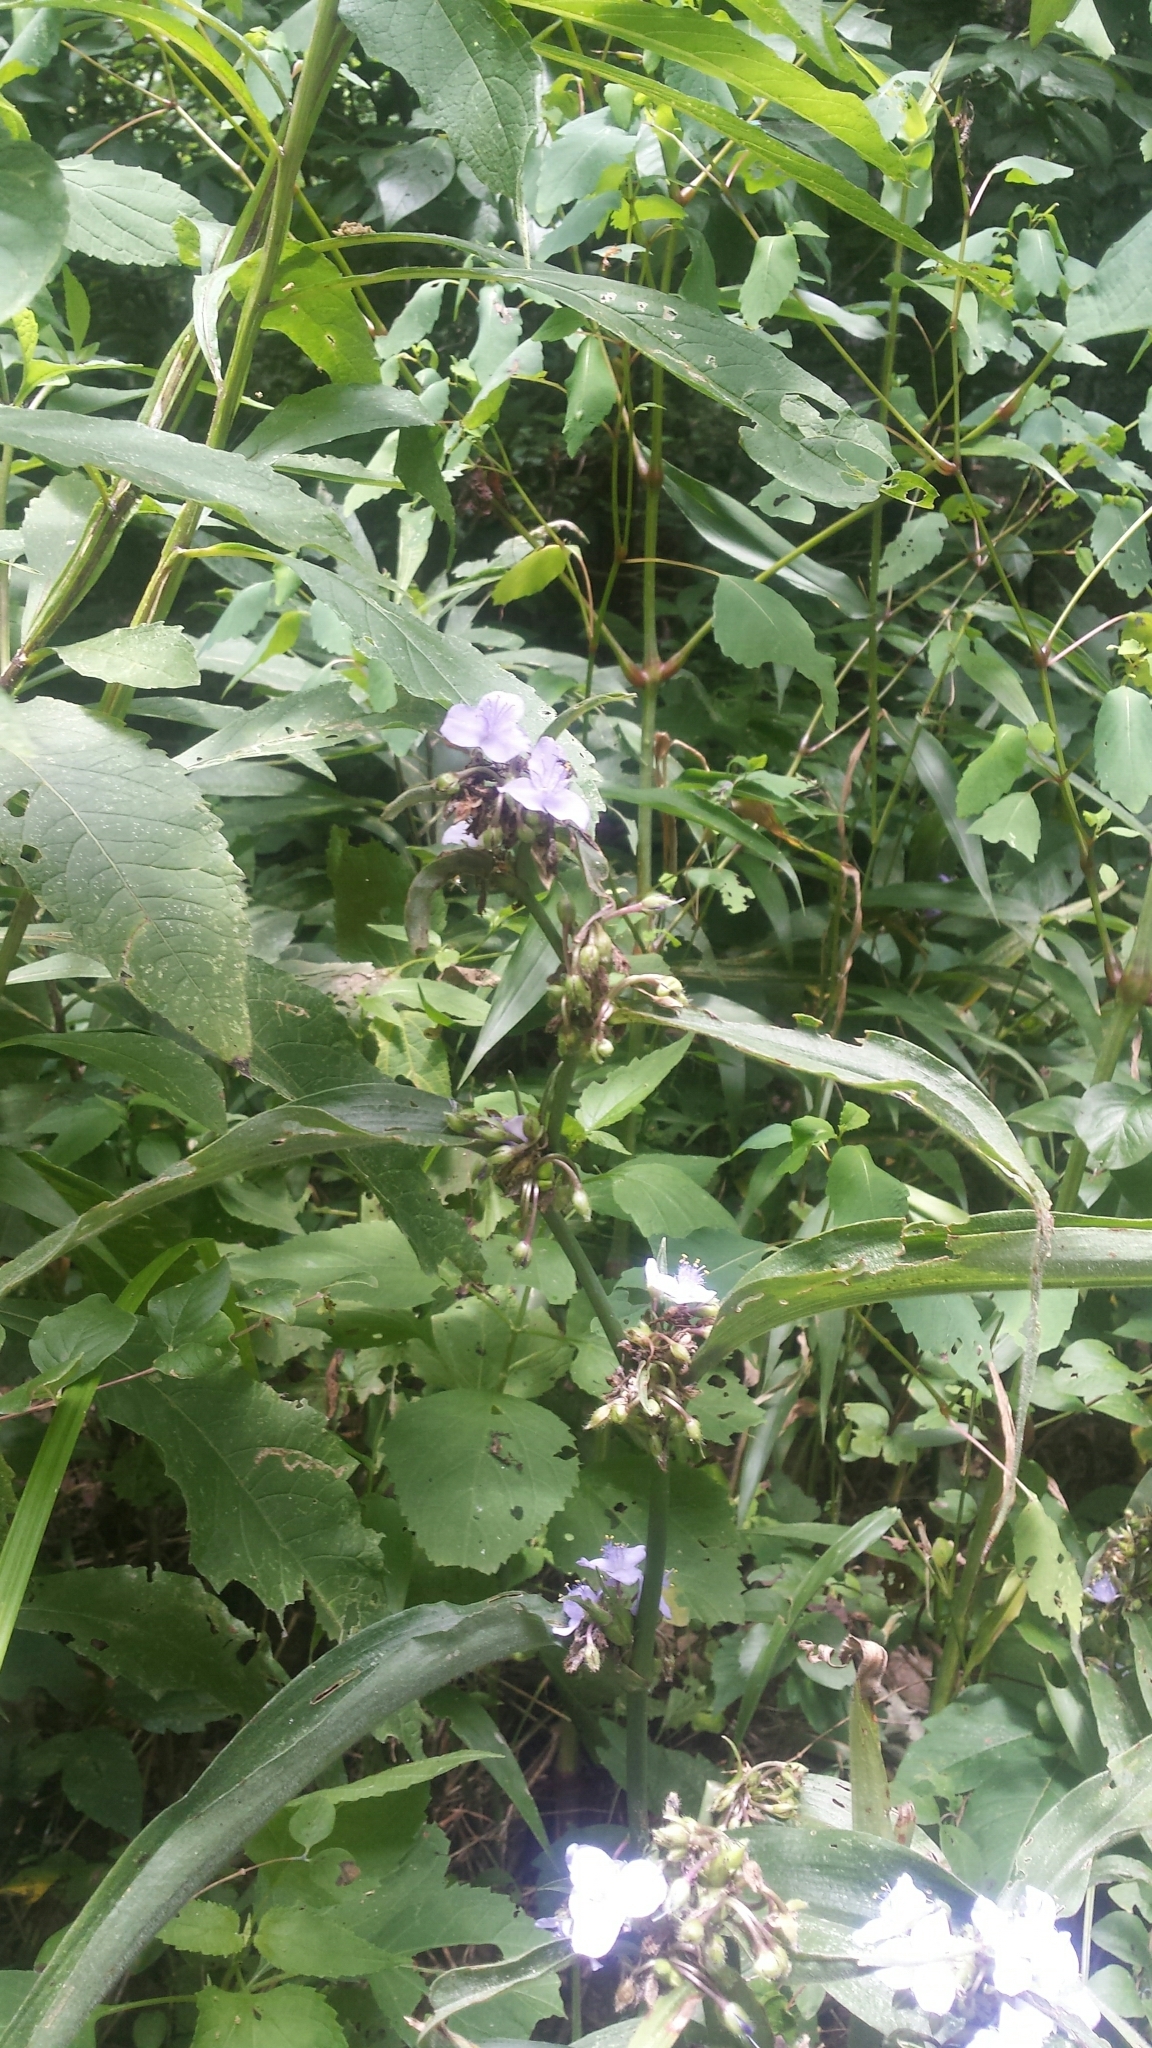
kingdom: Plantae
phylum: Tracheophyta
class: Liliopsida
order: Commelinales
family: Commelinaceae
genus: Tradescantia
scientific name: Tradescantia subaspera
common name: Wide-leaf spiderwort
